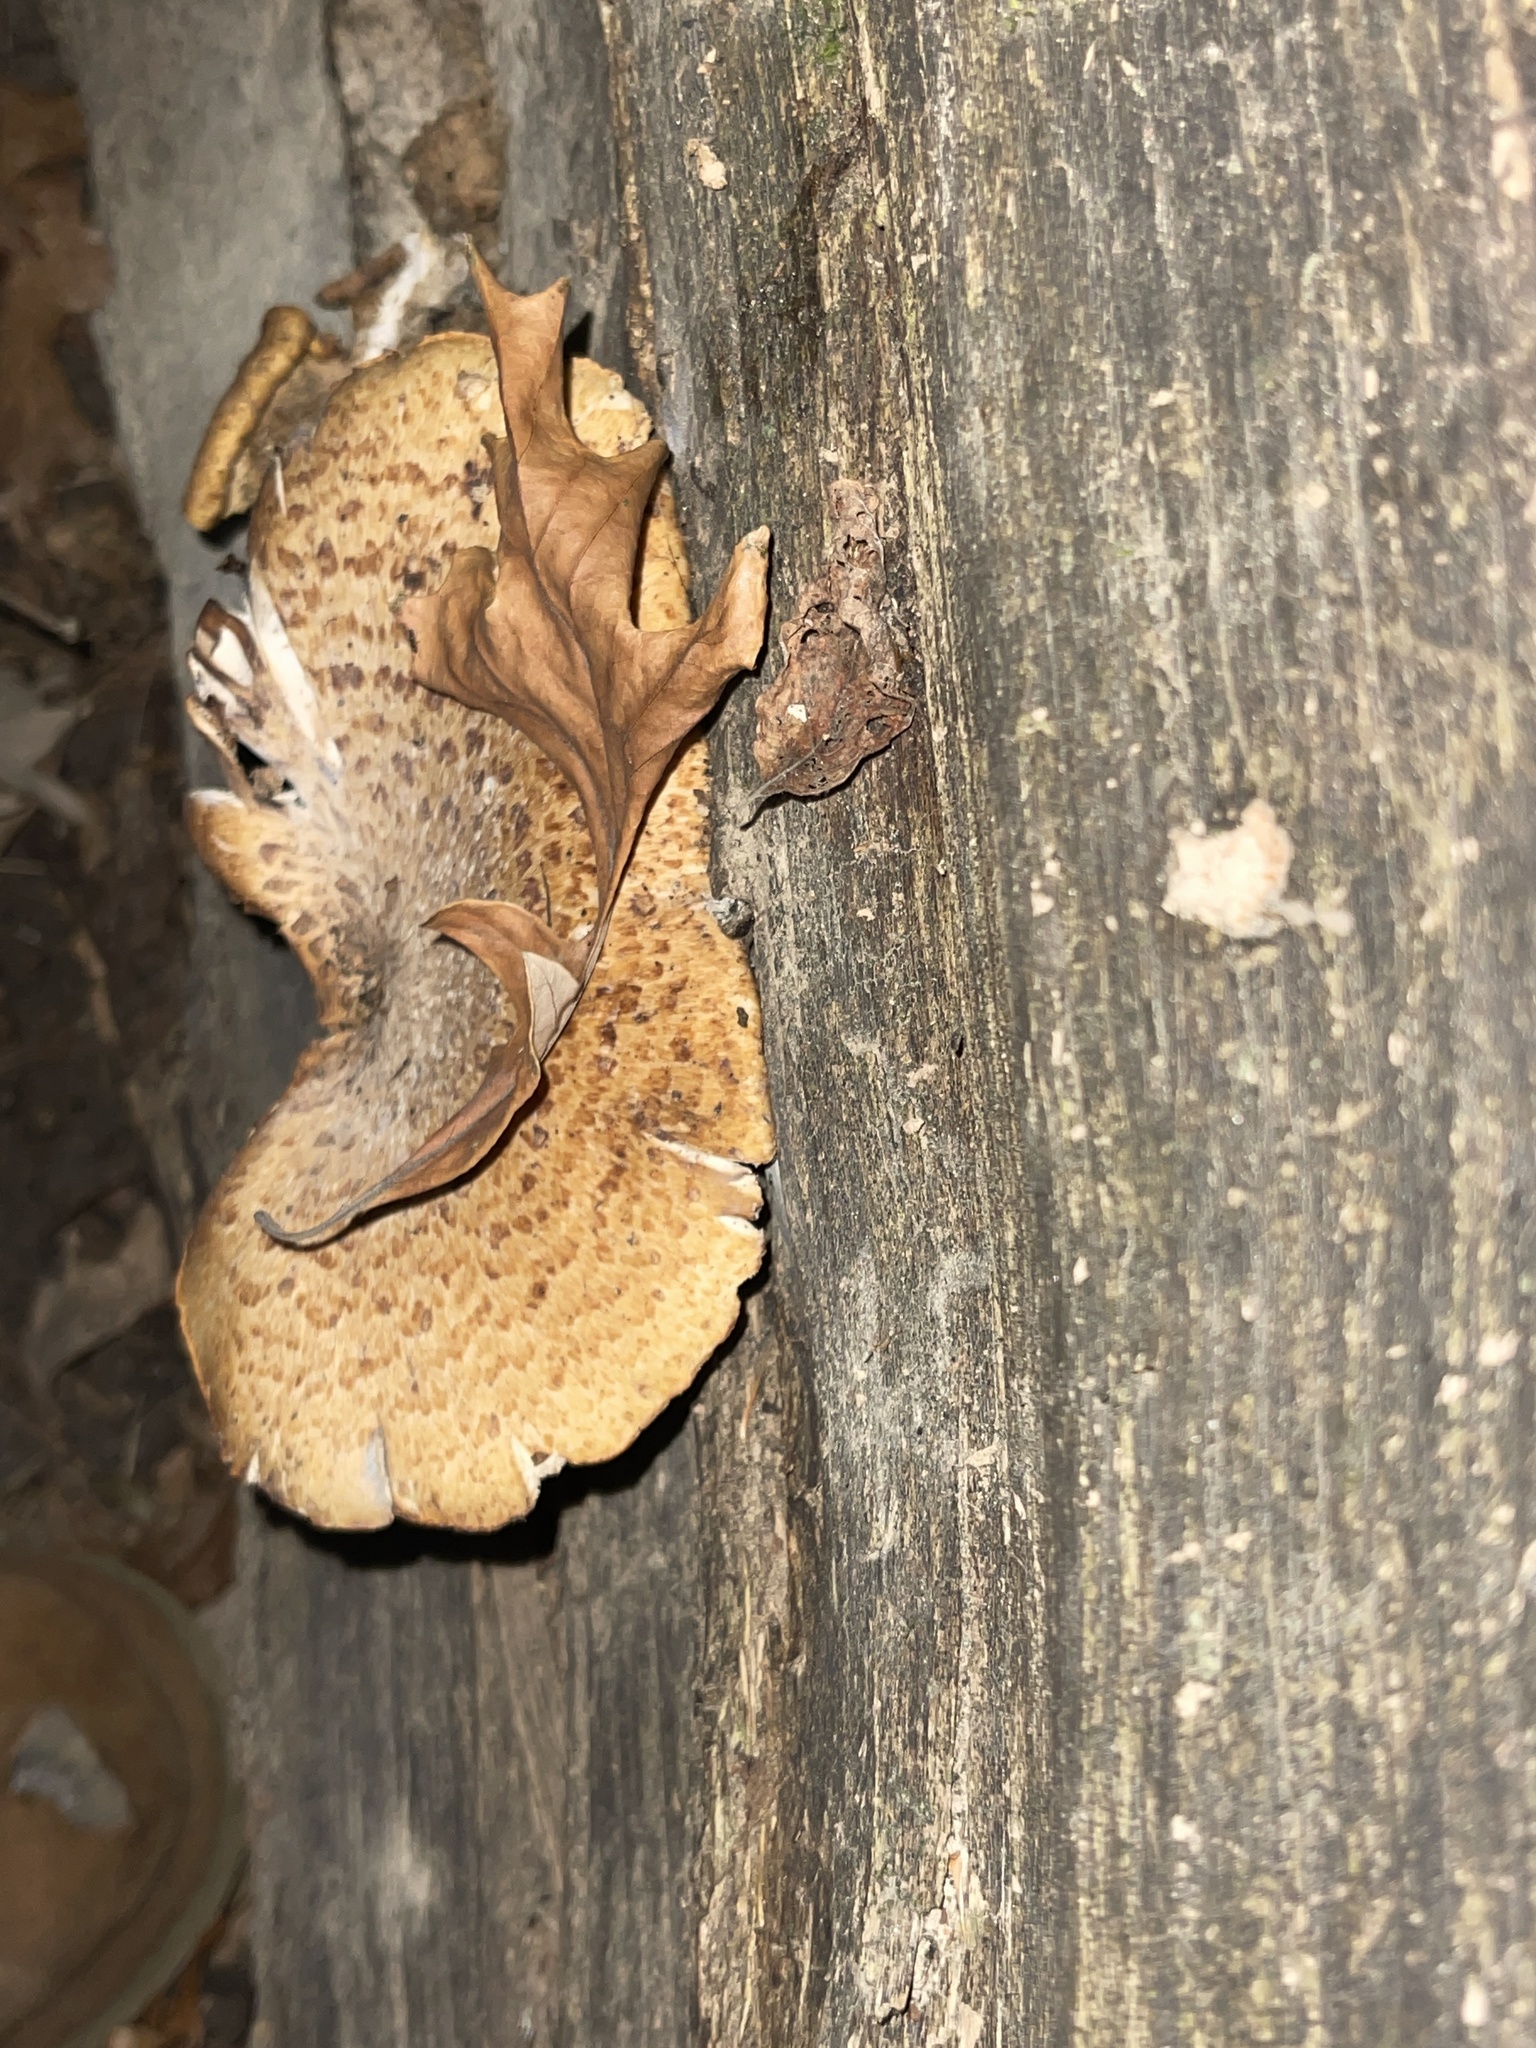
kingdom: Fungi
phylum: Basidiomycota
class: Agaricomycetes
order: Polyporales
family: Polyporaceae
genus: Cerioporus
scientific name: Cerioporus squamosus
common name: Dryad's saddle
